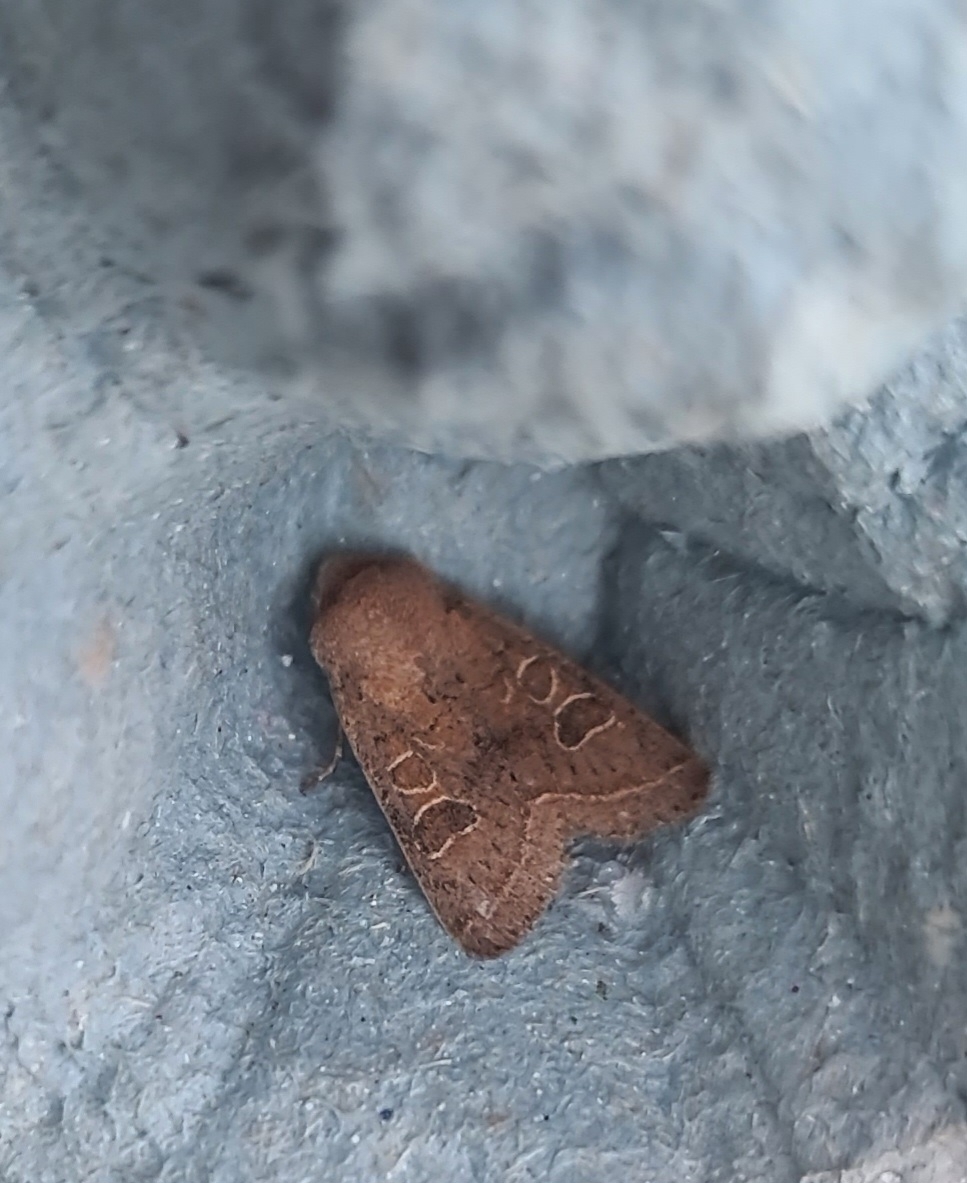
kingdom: Animalia
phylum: Arthropoda
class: Insecta
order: Lepidoptera
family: Noctuidae
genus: Orthosia
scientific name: Orthosia cerasi
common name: Common quaker
